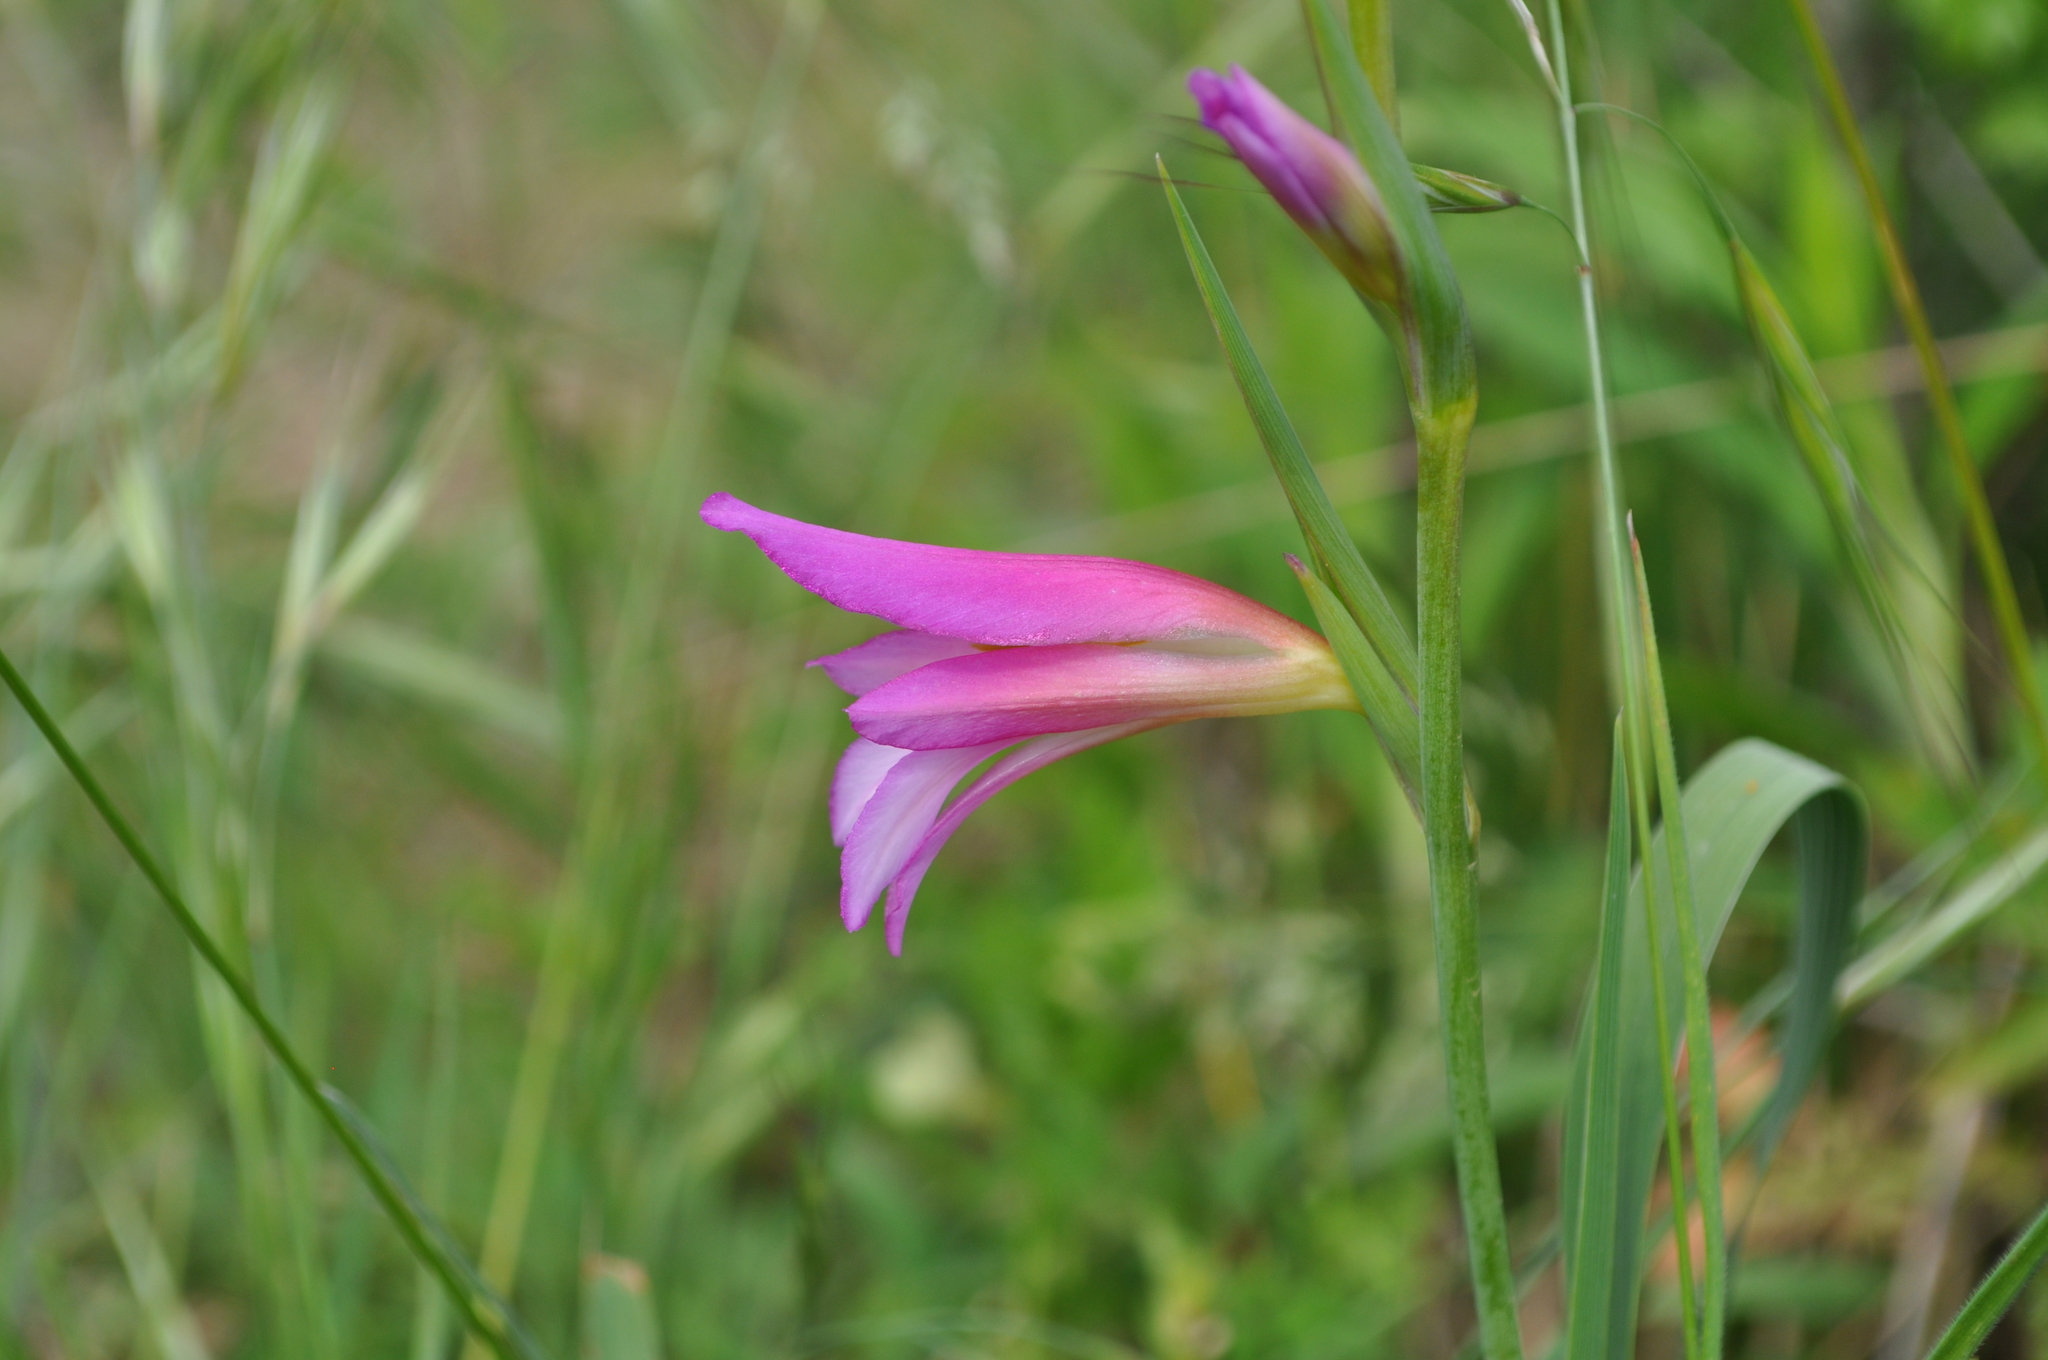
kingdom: Plantae
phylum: Tracheophyta
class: Liliopsida
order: Asparagales
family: Iridaceae
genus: Gladiolus
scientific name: Gladiolus italicus
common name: Field gladiolus
